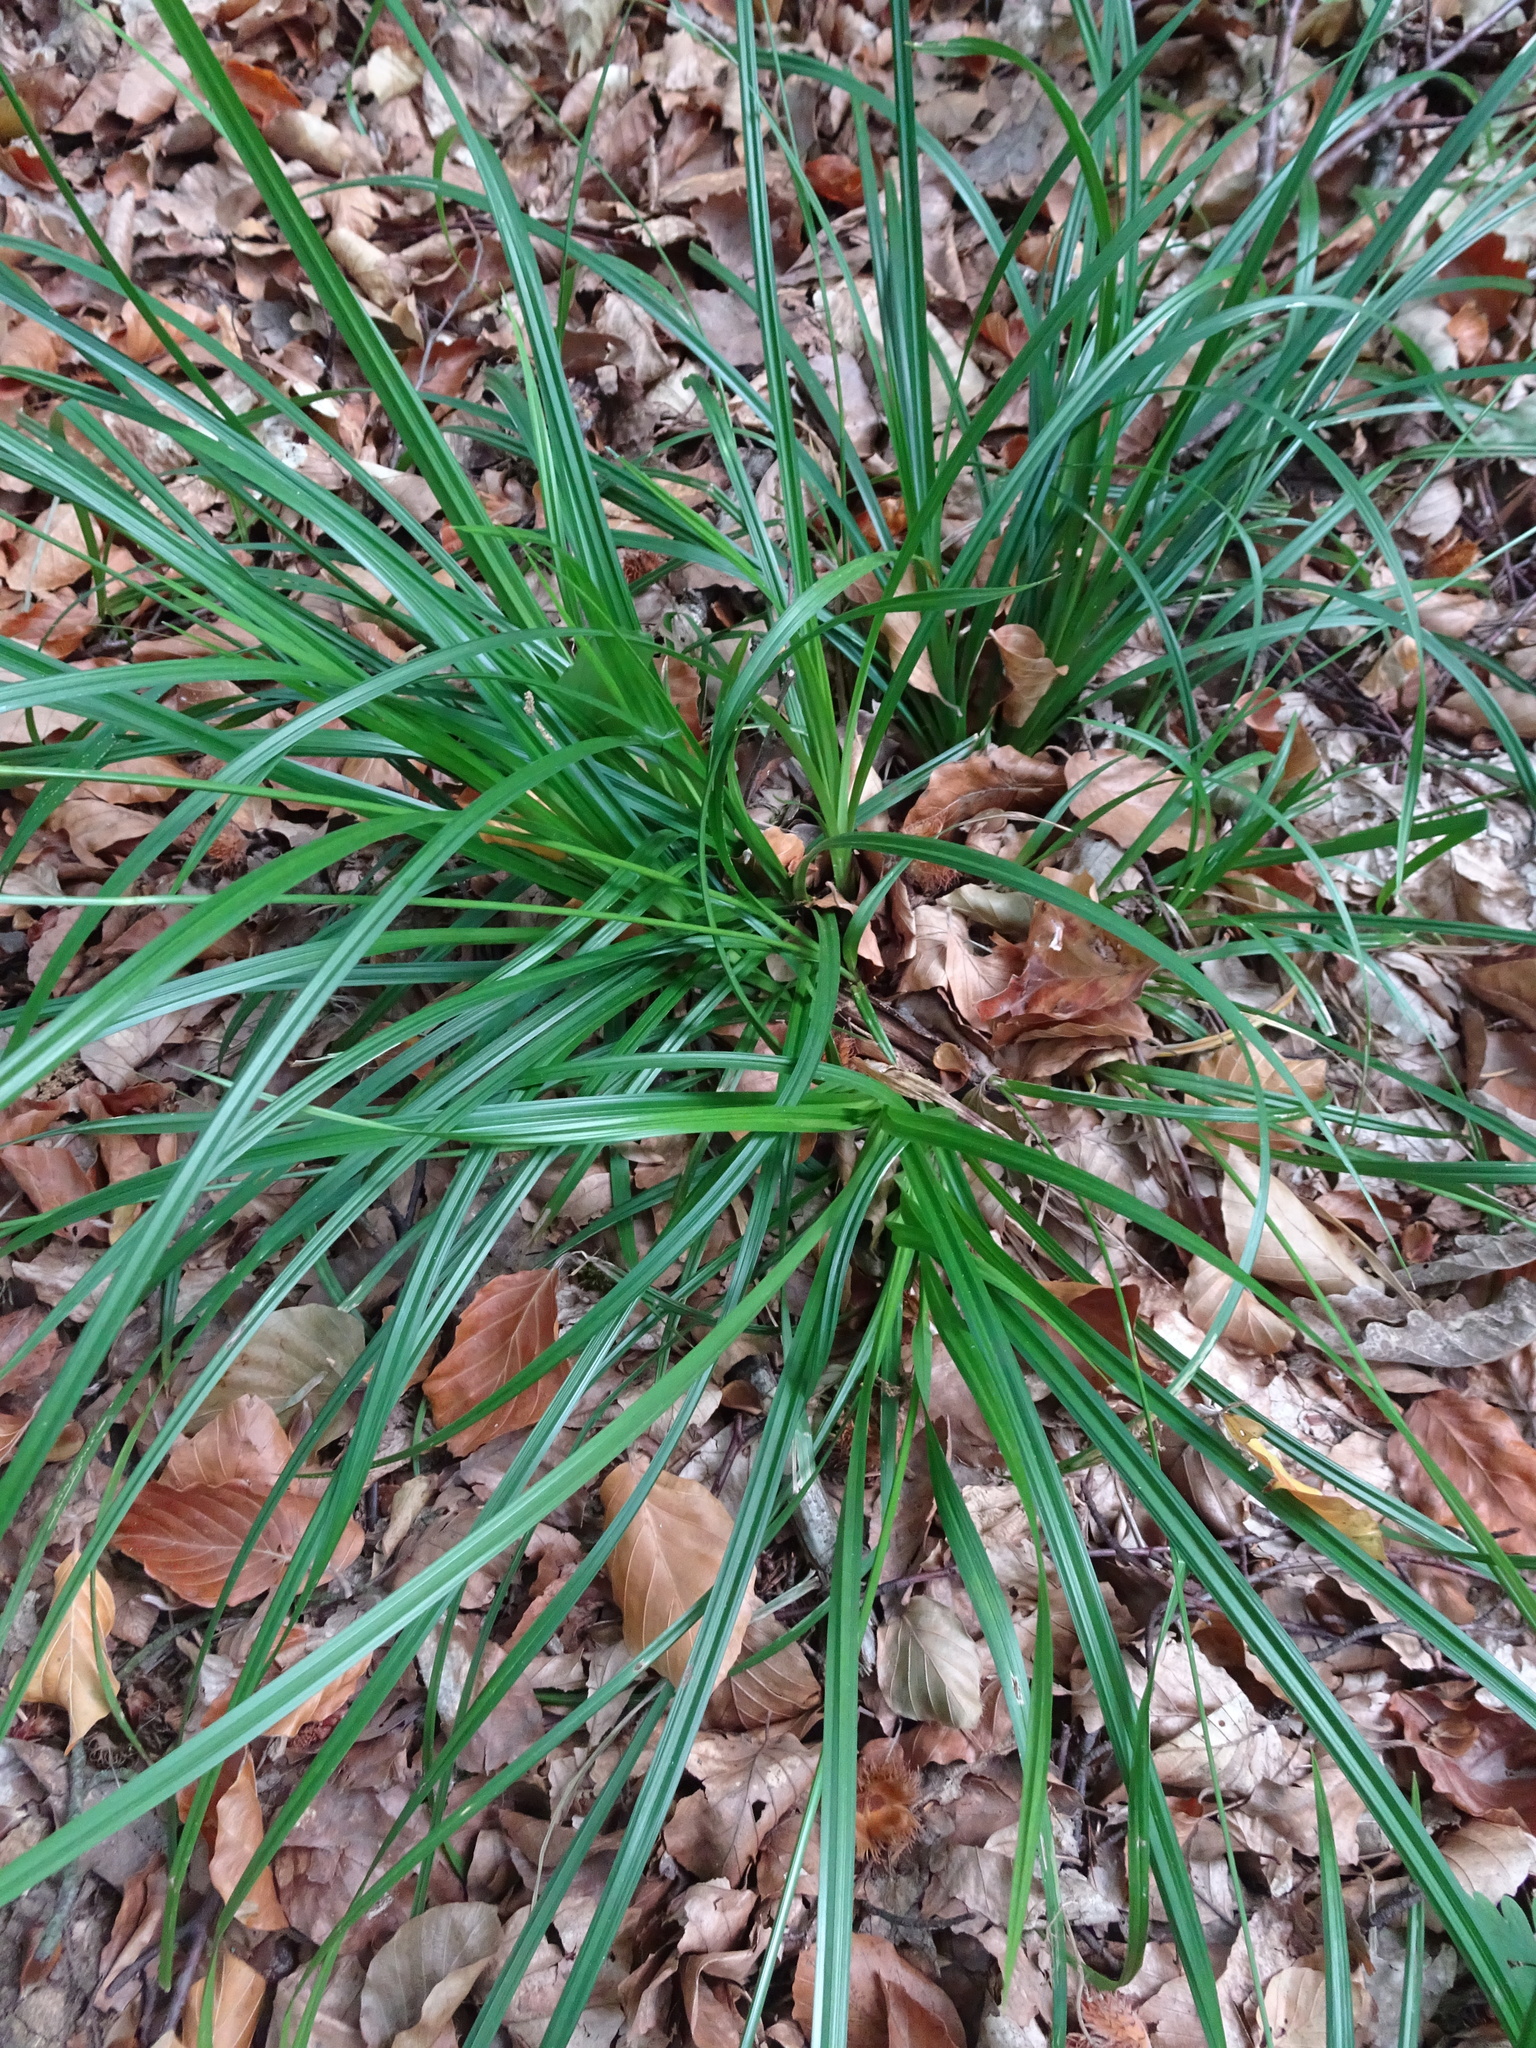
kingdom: Plantae
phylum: Tracheophyta
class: Liliopsida
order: Poales
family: Cyperaceae
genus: Carex
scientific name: Carex sylvatica
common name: Wood-sedge
